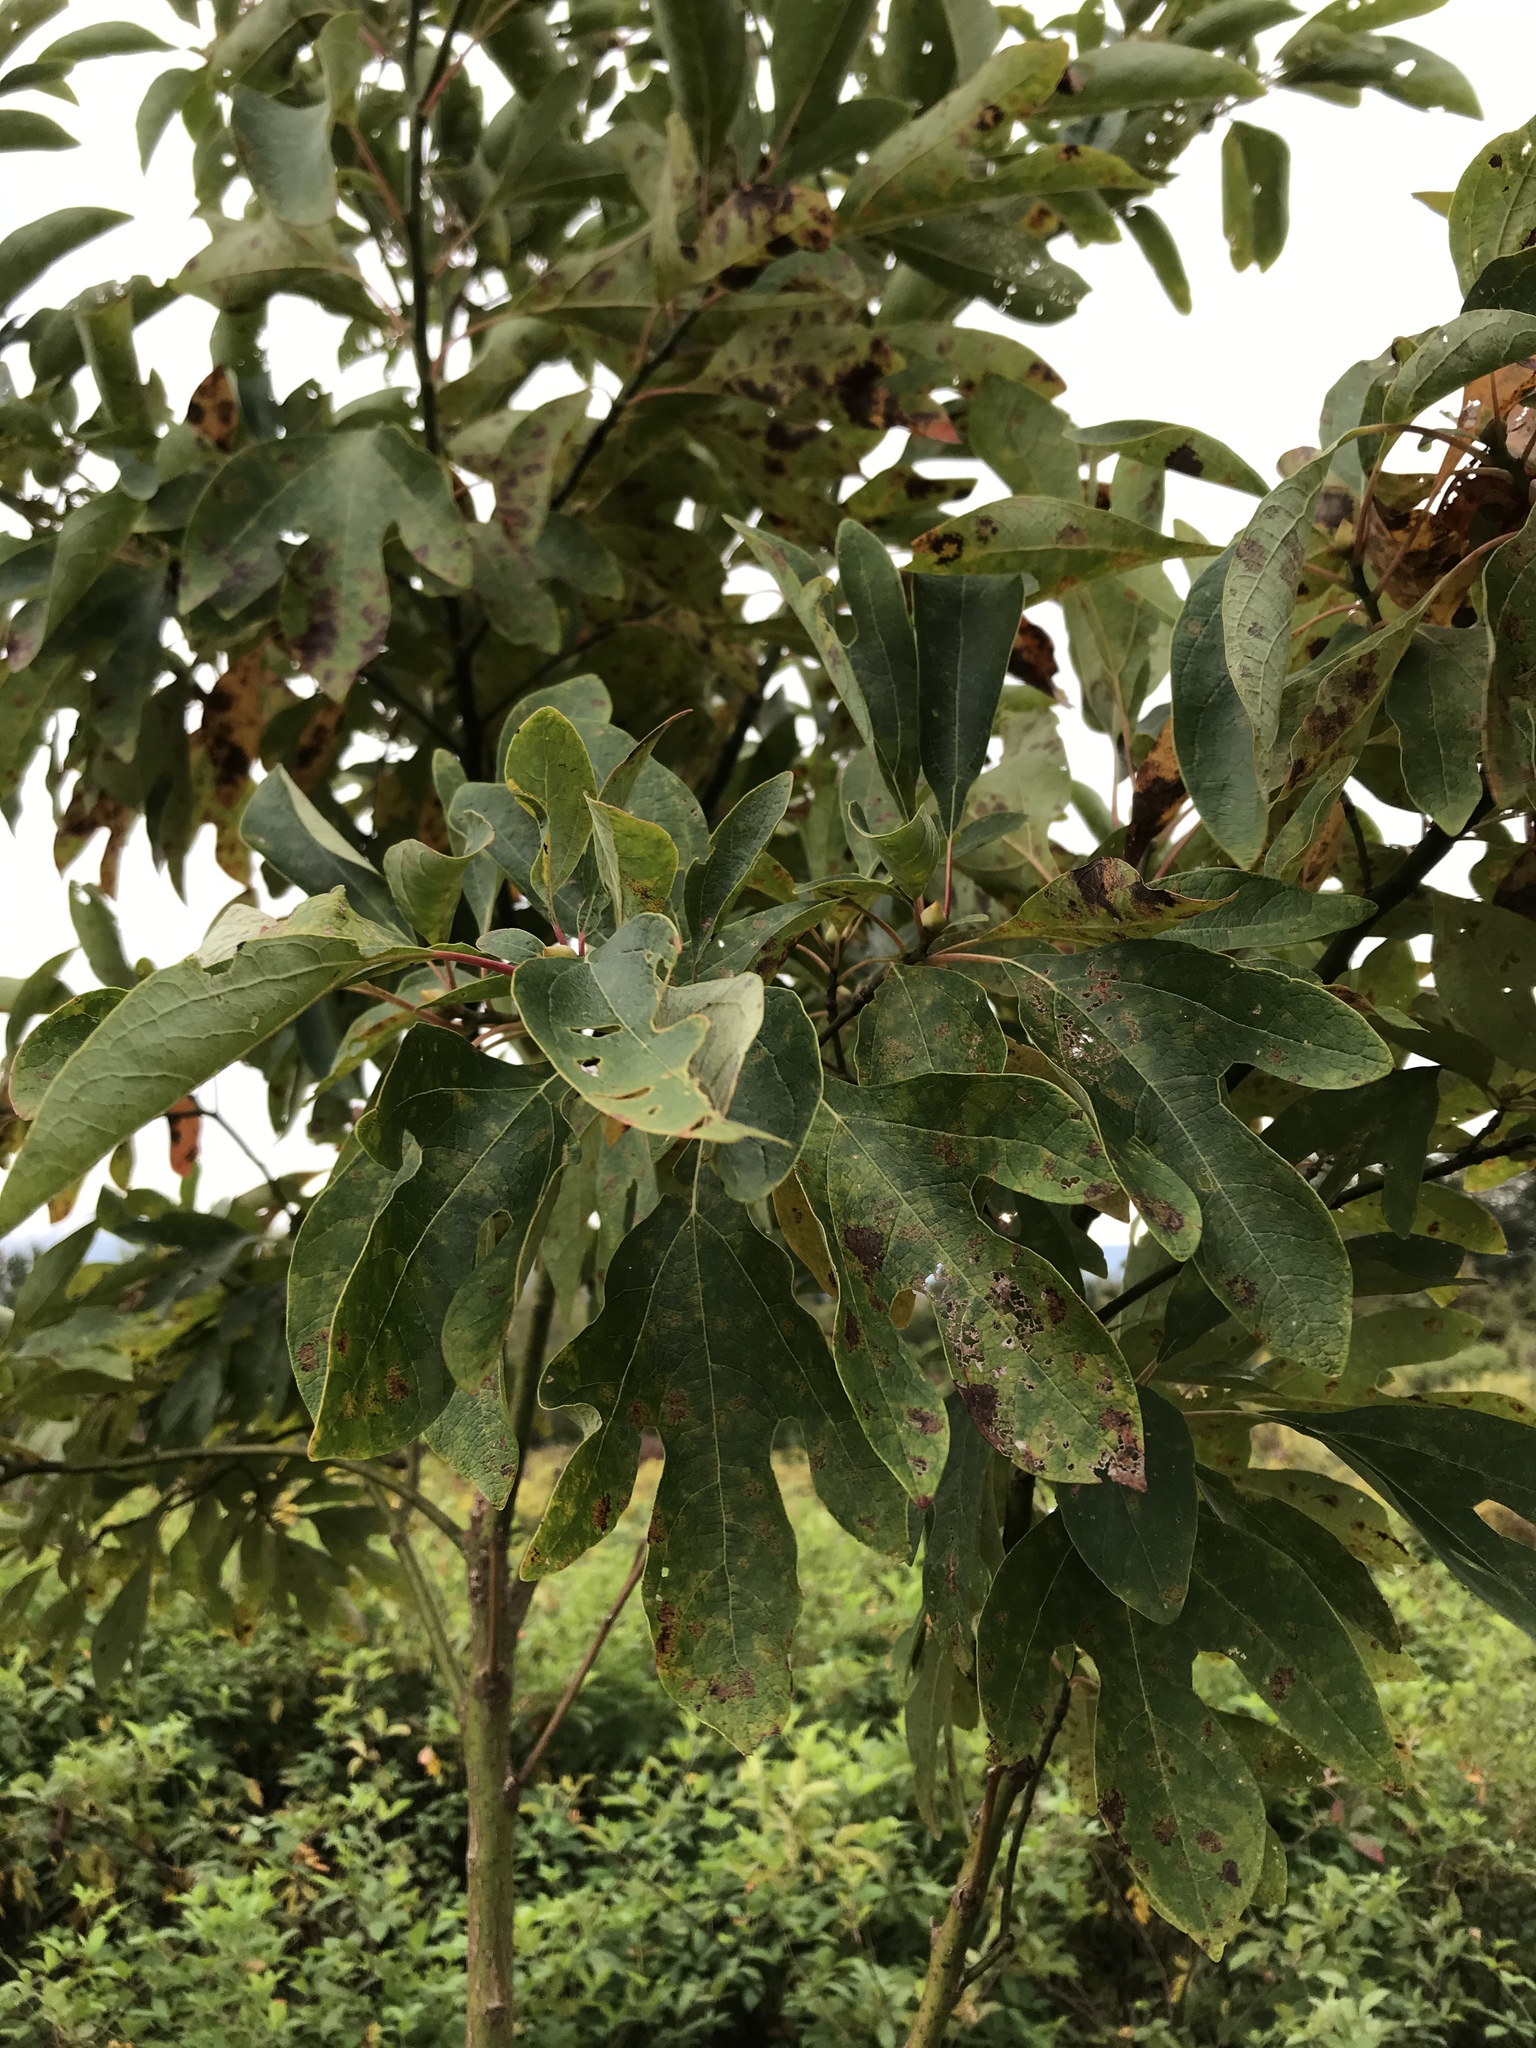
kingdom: Plantae
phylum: Tracheophyta
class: Magnoliopsida
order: Laurales
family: Lauraceae
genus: Sassafras
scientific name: Sassafras albidum
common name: Sassafras
